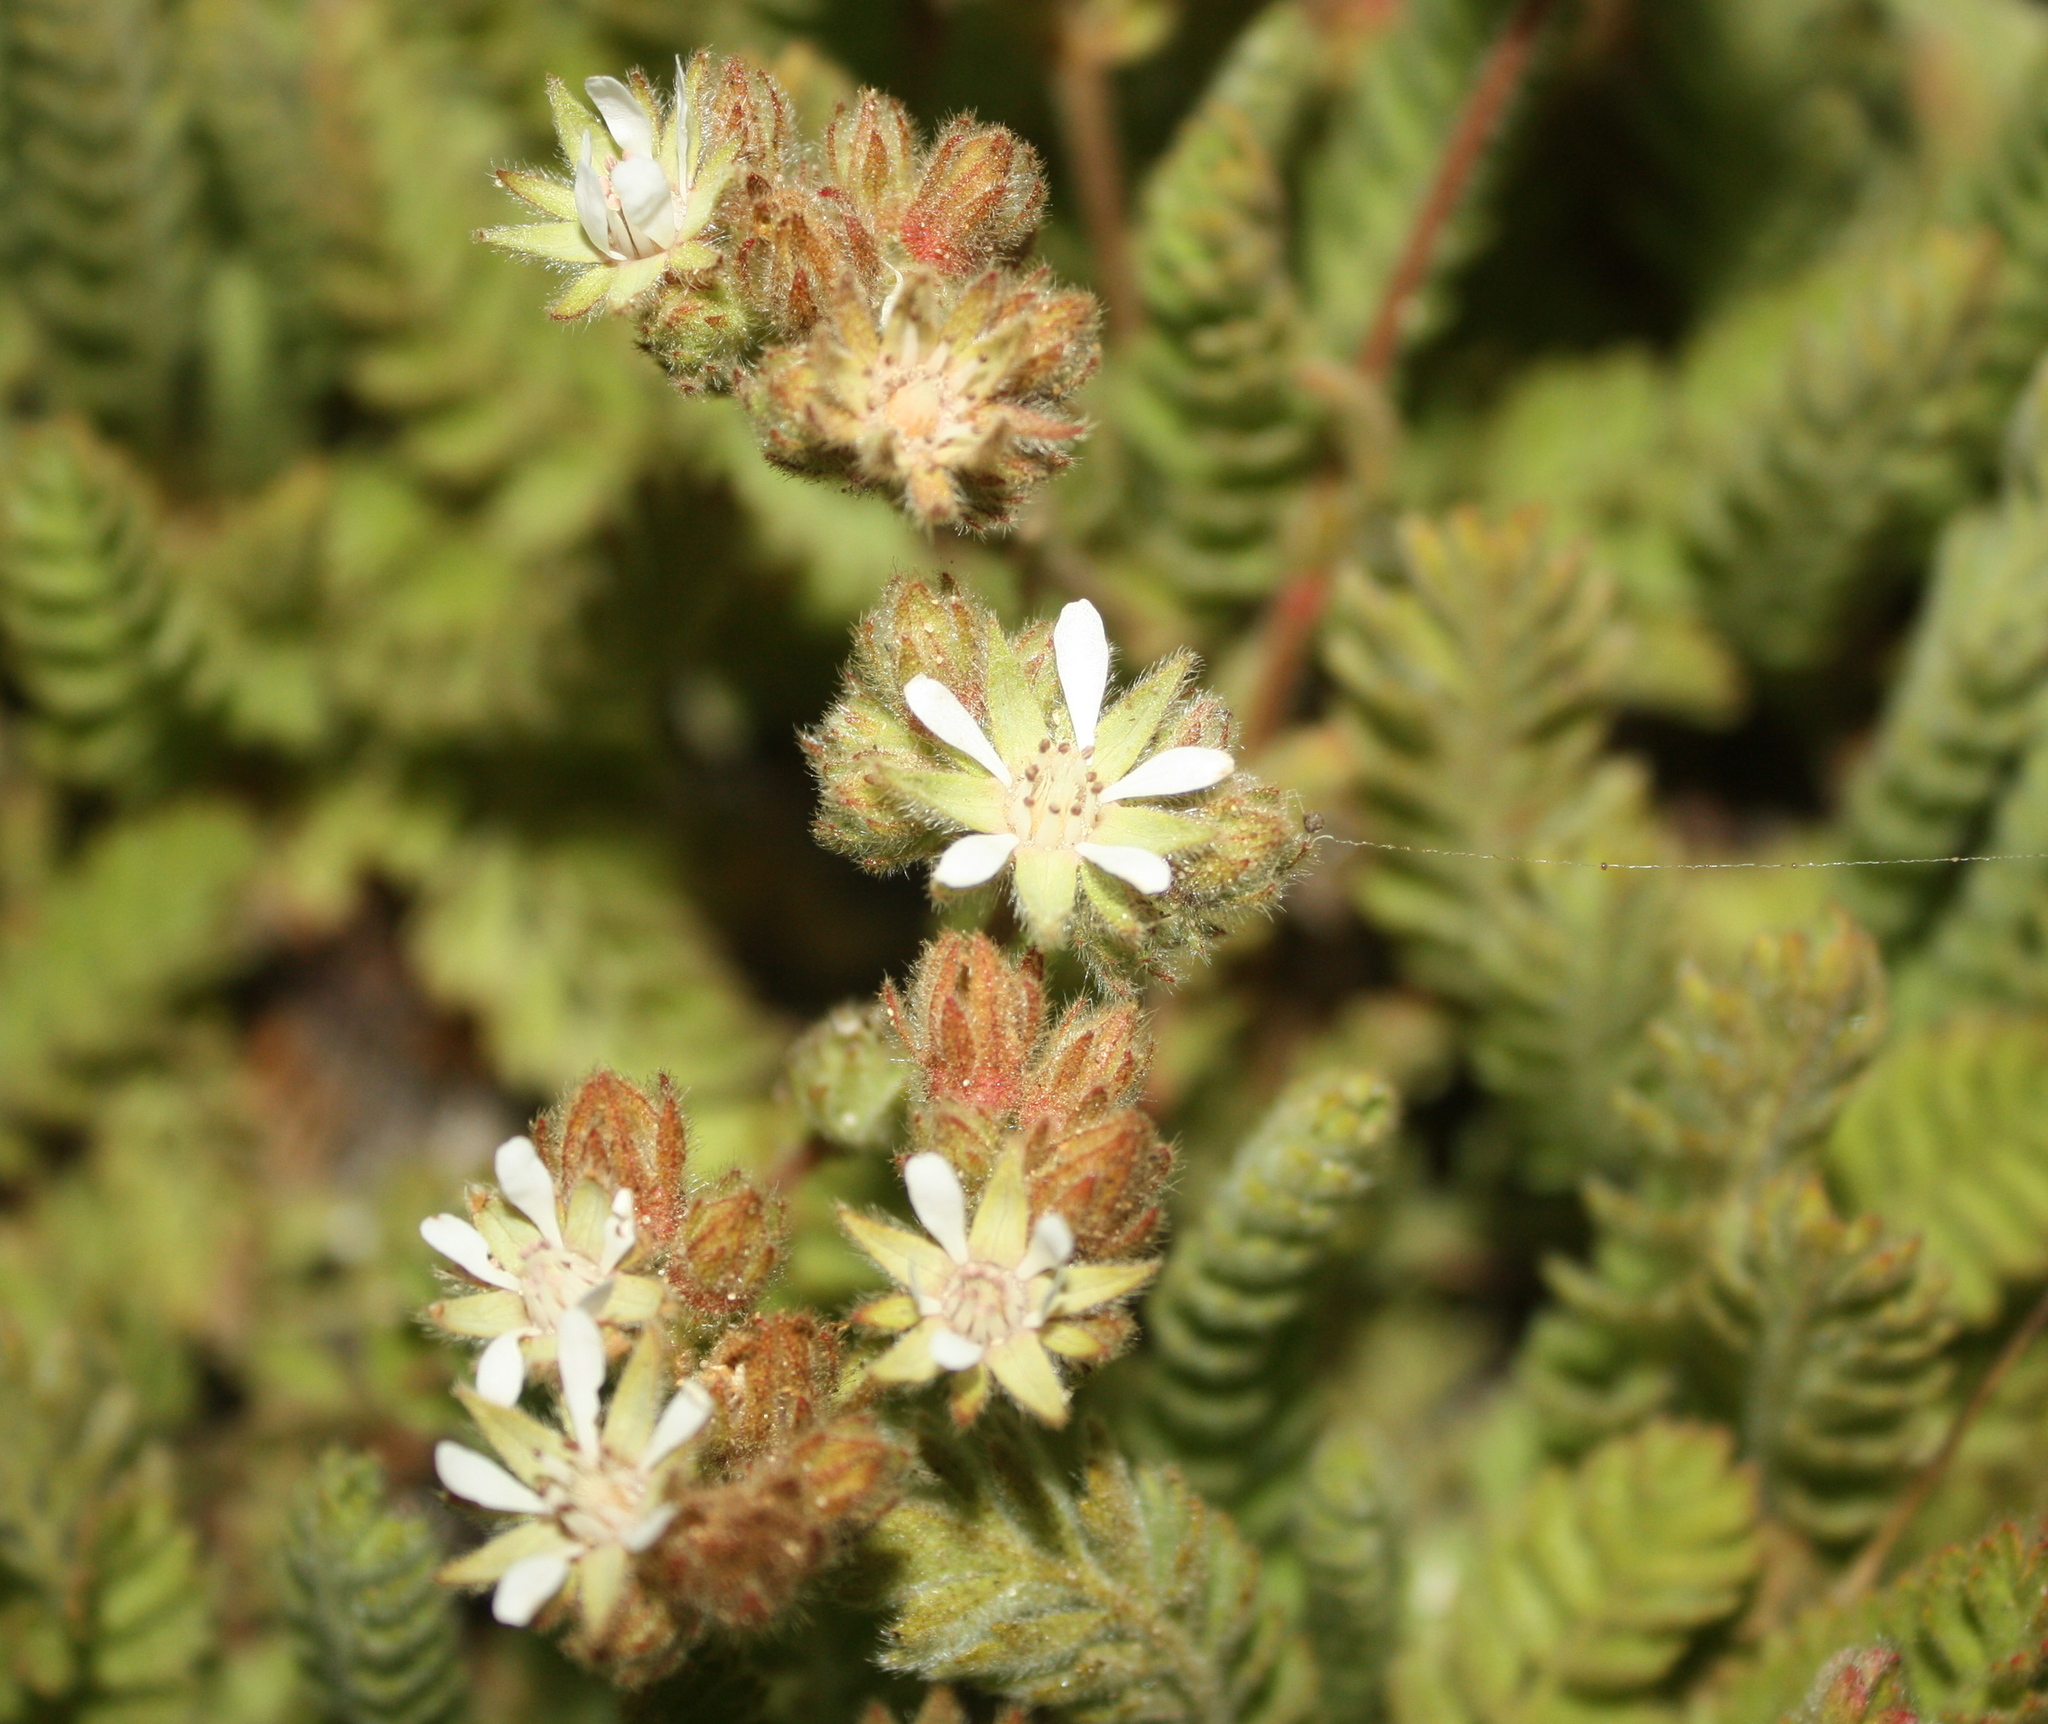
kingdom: Plantae
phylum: Tracheophyta
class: Magnoliopsida
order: Rosales
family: Rosaceae
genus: Potentilla
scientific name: Potentilla marinensis
